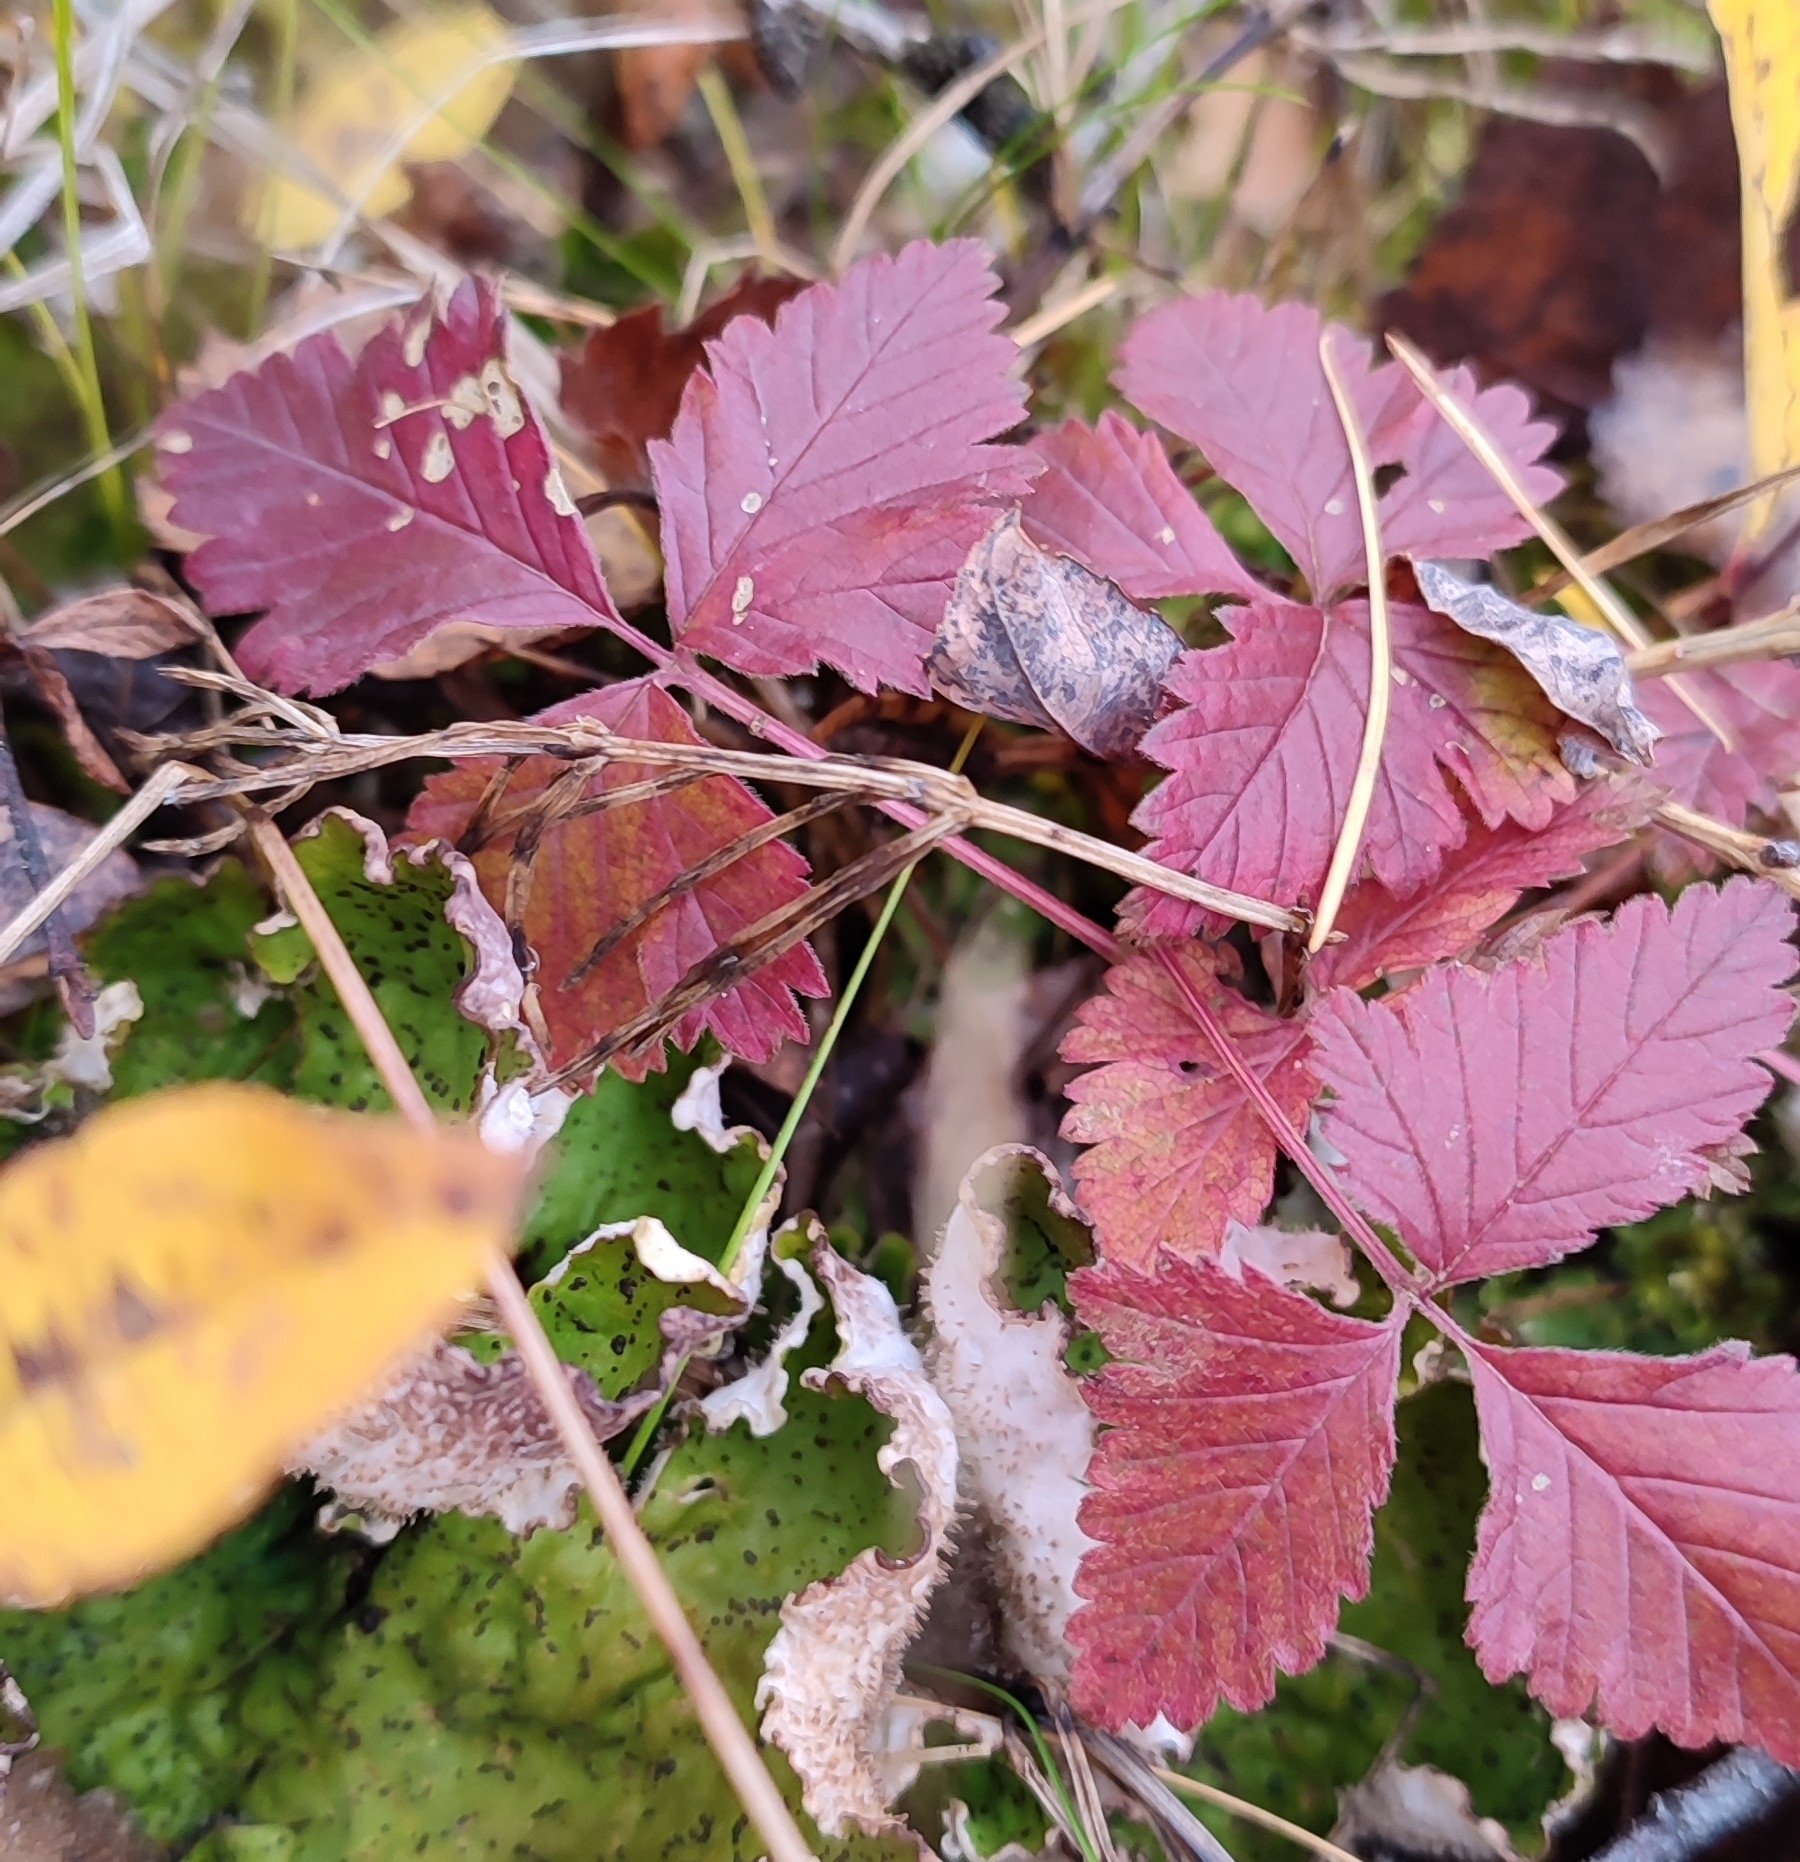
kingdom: Plantae
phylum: Tracheophyta
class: Magnoliopsida
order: Rosales
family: Rosaceae
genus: Rubus
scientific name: Rubus arcticus
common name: Arctic bramble
